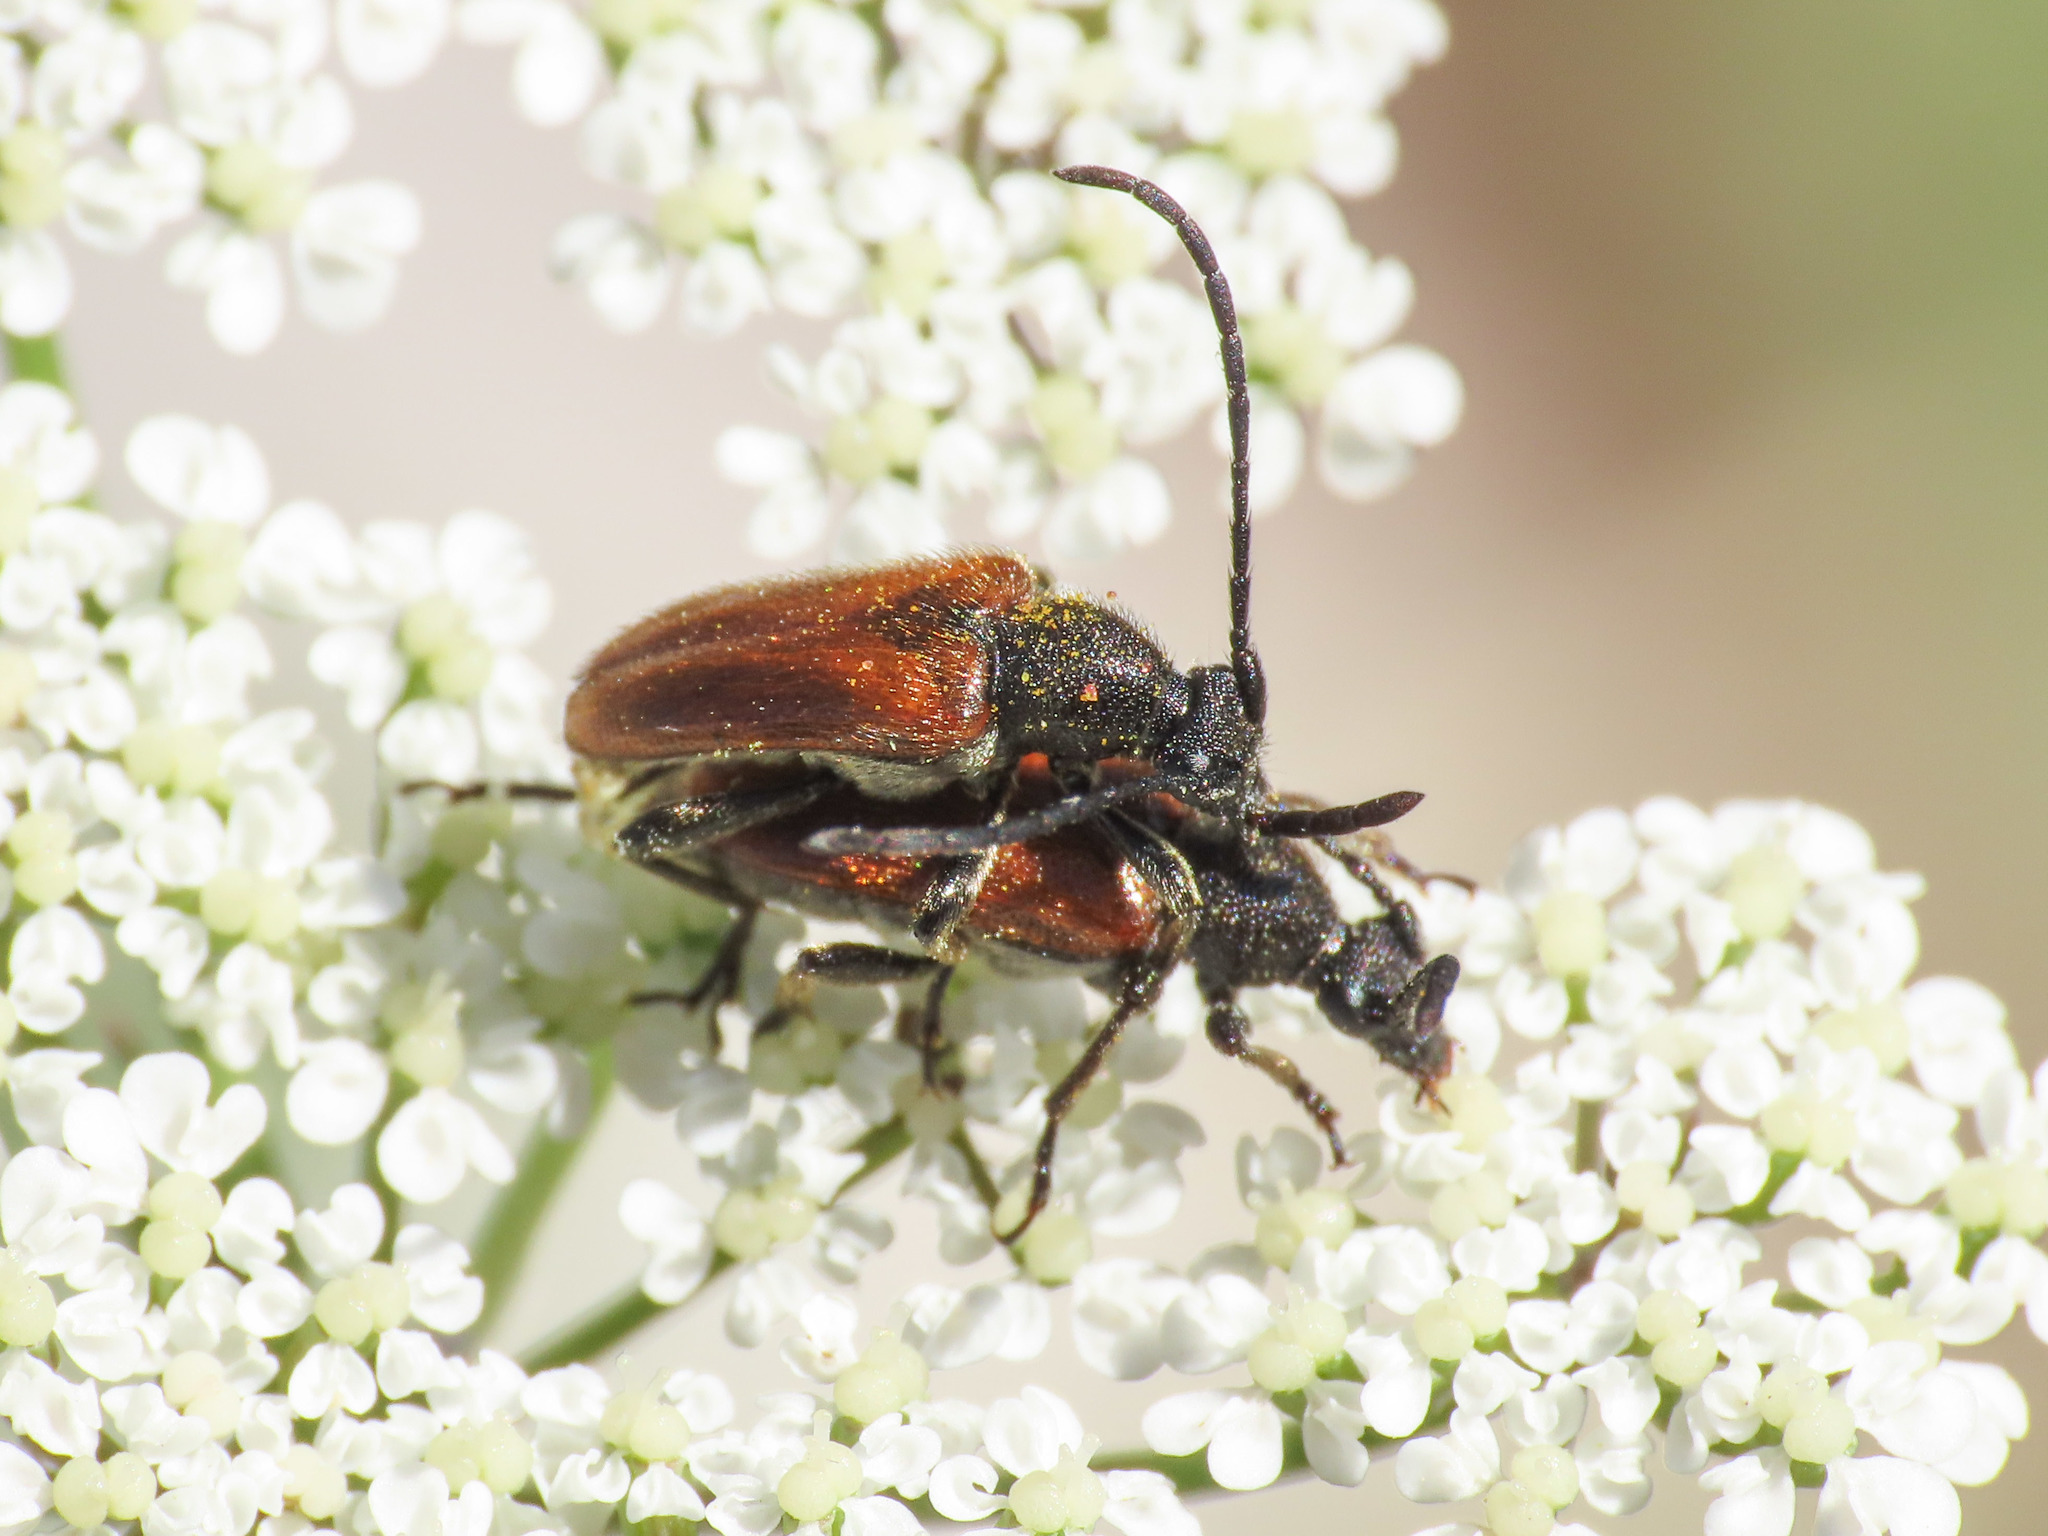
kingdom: Animalia
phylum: Arthropoda
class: Insecta
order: Coleoptera
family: Cerambycidae
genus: Pseudovadonia
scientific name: Pseudovadonia livida
